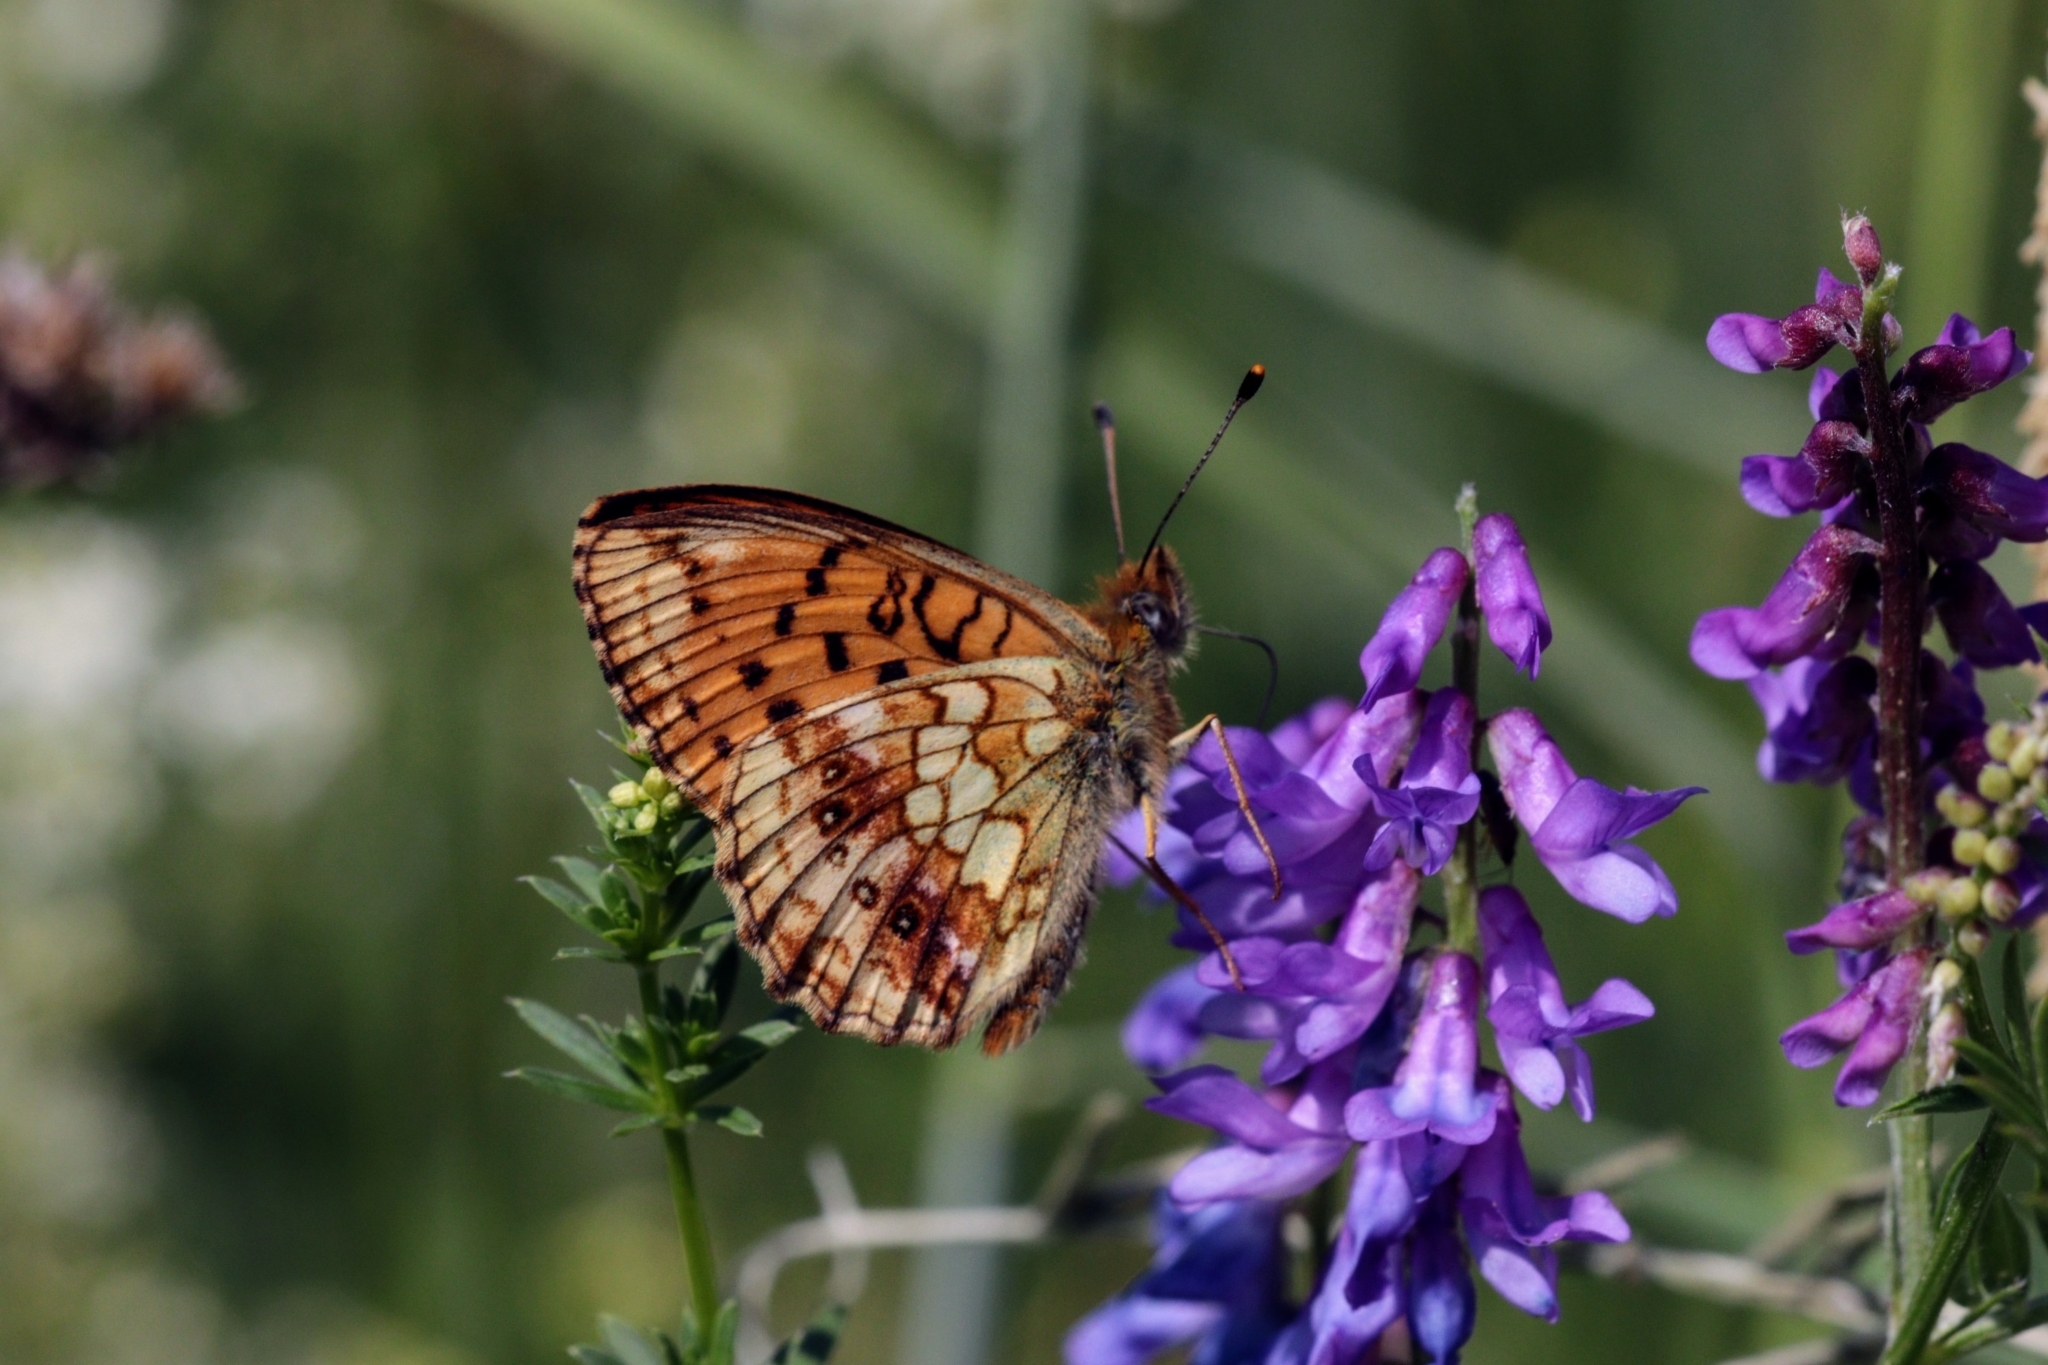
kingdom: Animalia
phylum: Arthropoda
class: Insecta
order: Lepidoptera
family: Nymphalidae
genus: Brenthis
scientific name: Brenthis ino
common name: Lesser marbled fritillary
